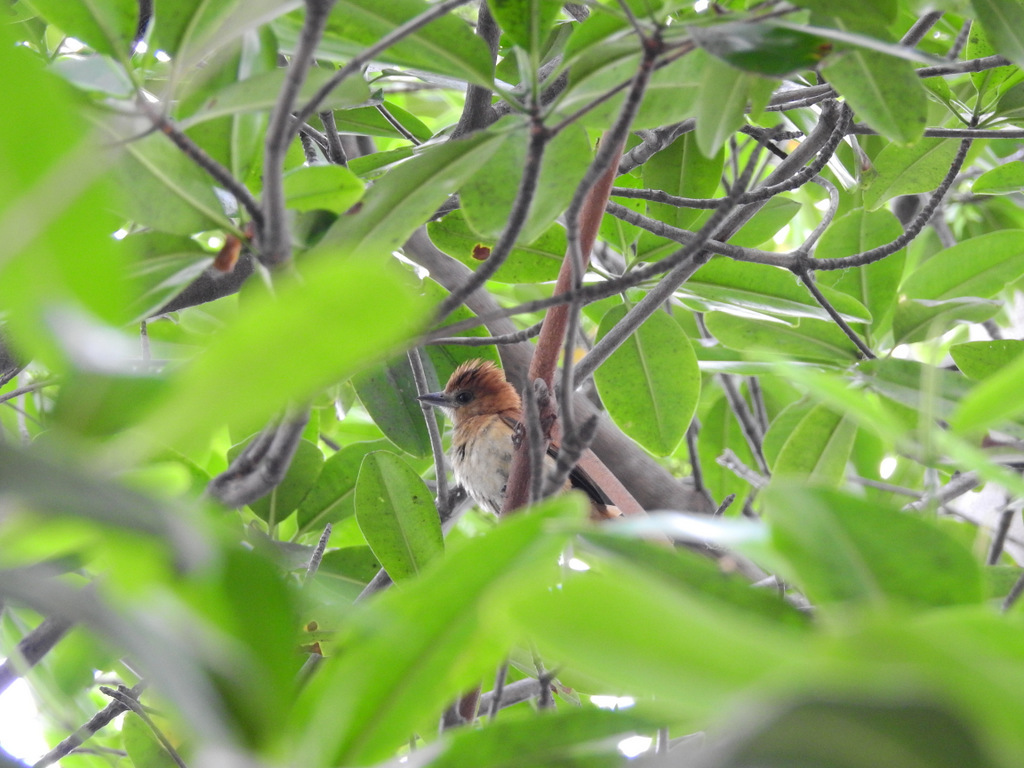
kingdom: Animalia
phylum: Chordata
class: Aves
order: Passeriformes
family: Cotingidae
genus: Pachyramphus
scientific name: Pachyramphus spodiurus
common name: Slaty becard
